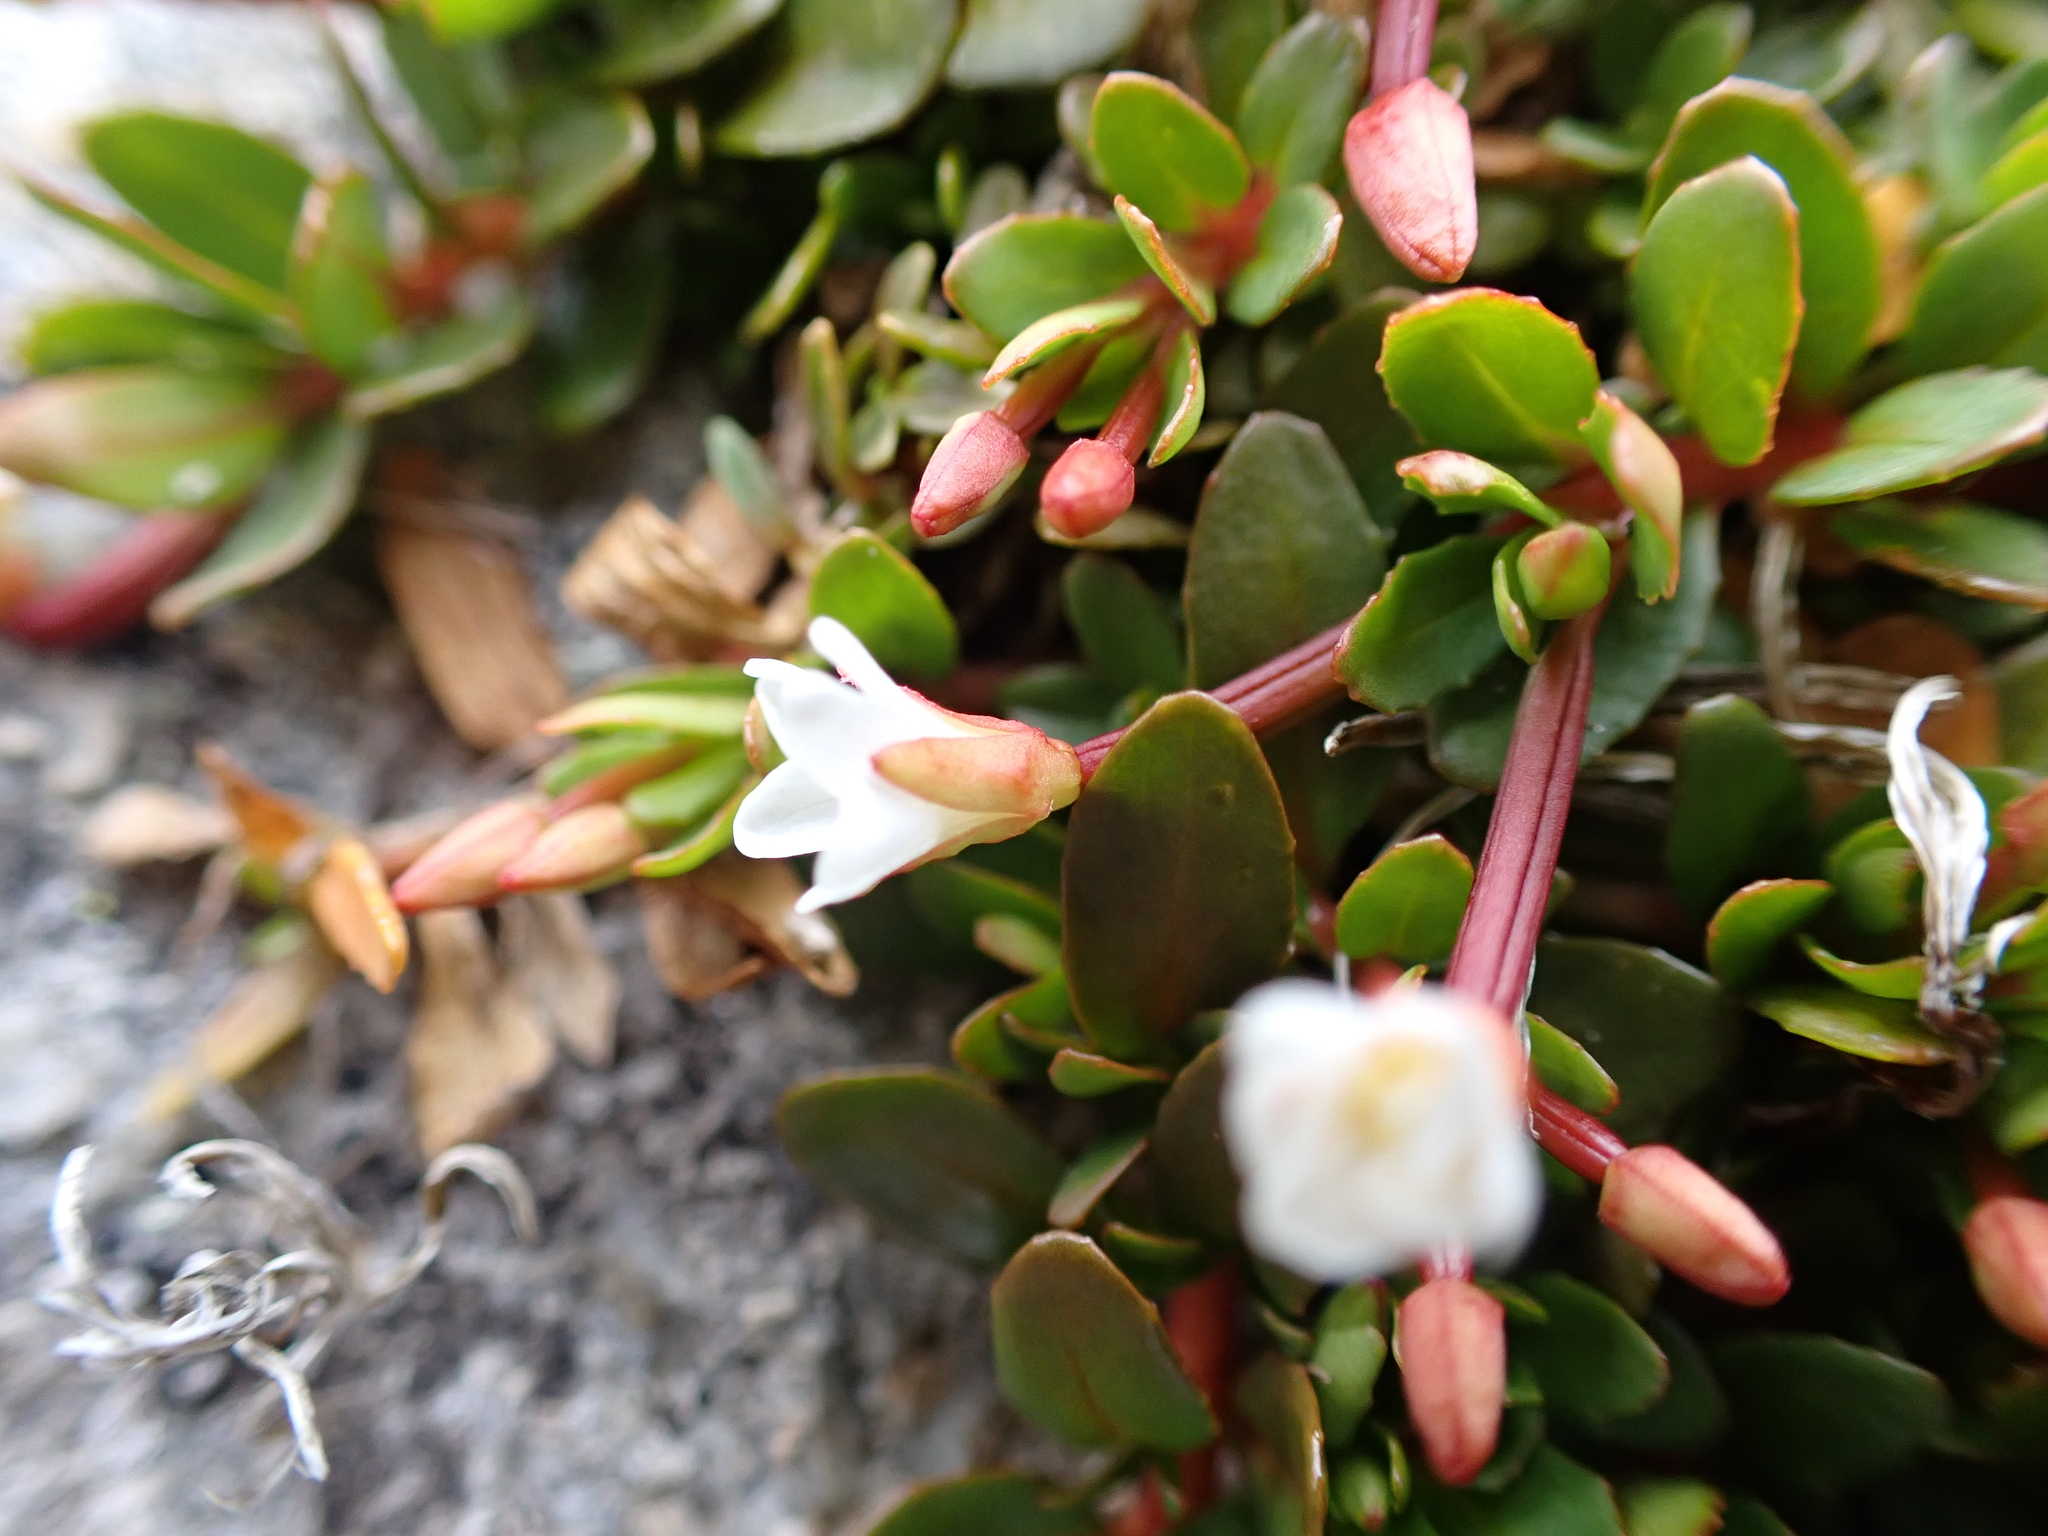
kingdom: Plantae
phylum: Tracheophyta
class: Magnoliopsida
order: Myrtales
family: Onagraceae
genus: Epilobium
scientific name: Epilobium tasmanicum
